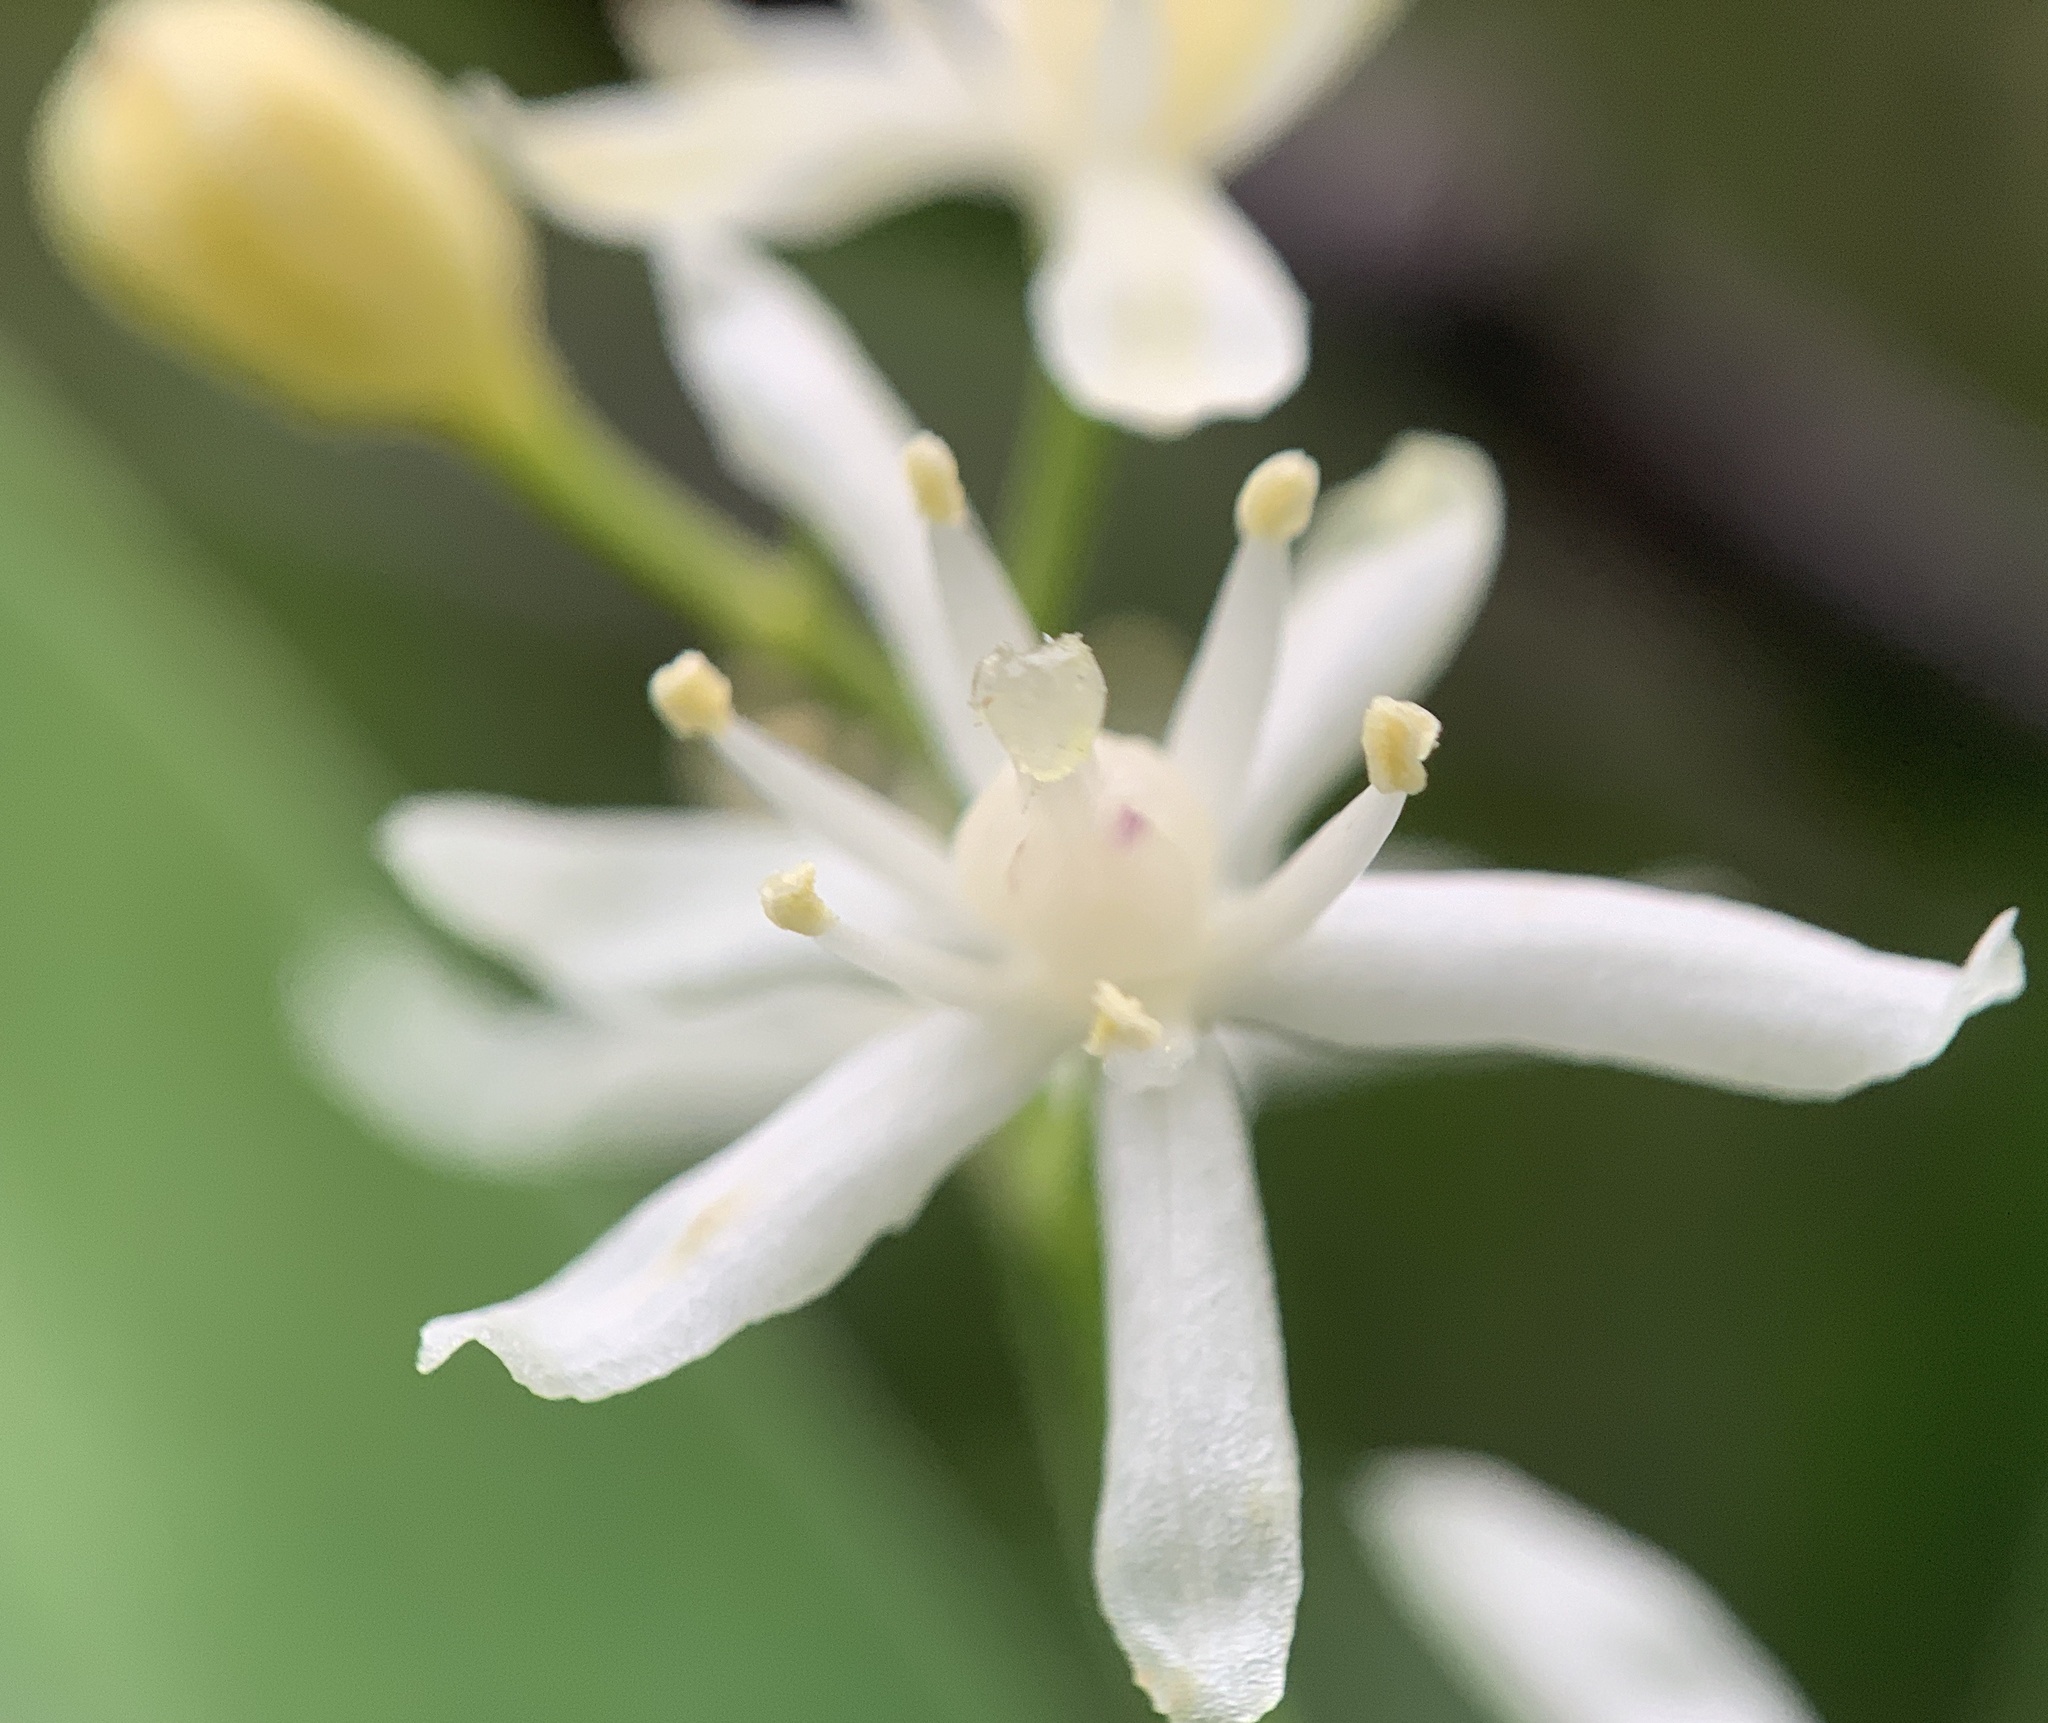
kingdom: Plantae
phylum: Tracheophyta
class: Liliopsida
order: Asparagales
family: Asparagaceae
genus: Maianthemum
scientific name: Maianthemum stellatum
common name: Little false solomon's seal
